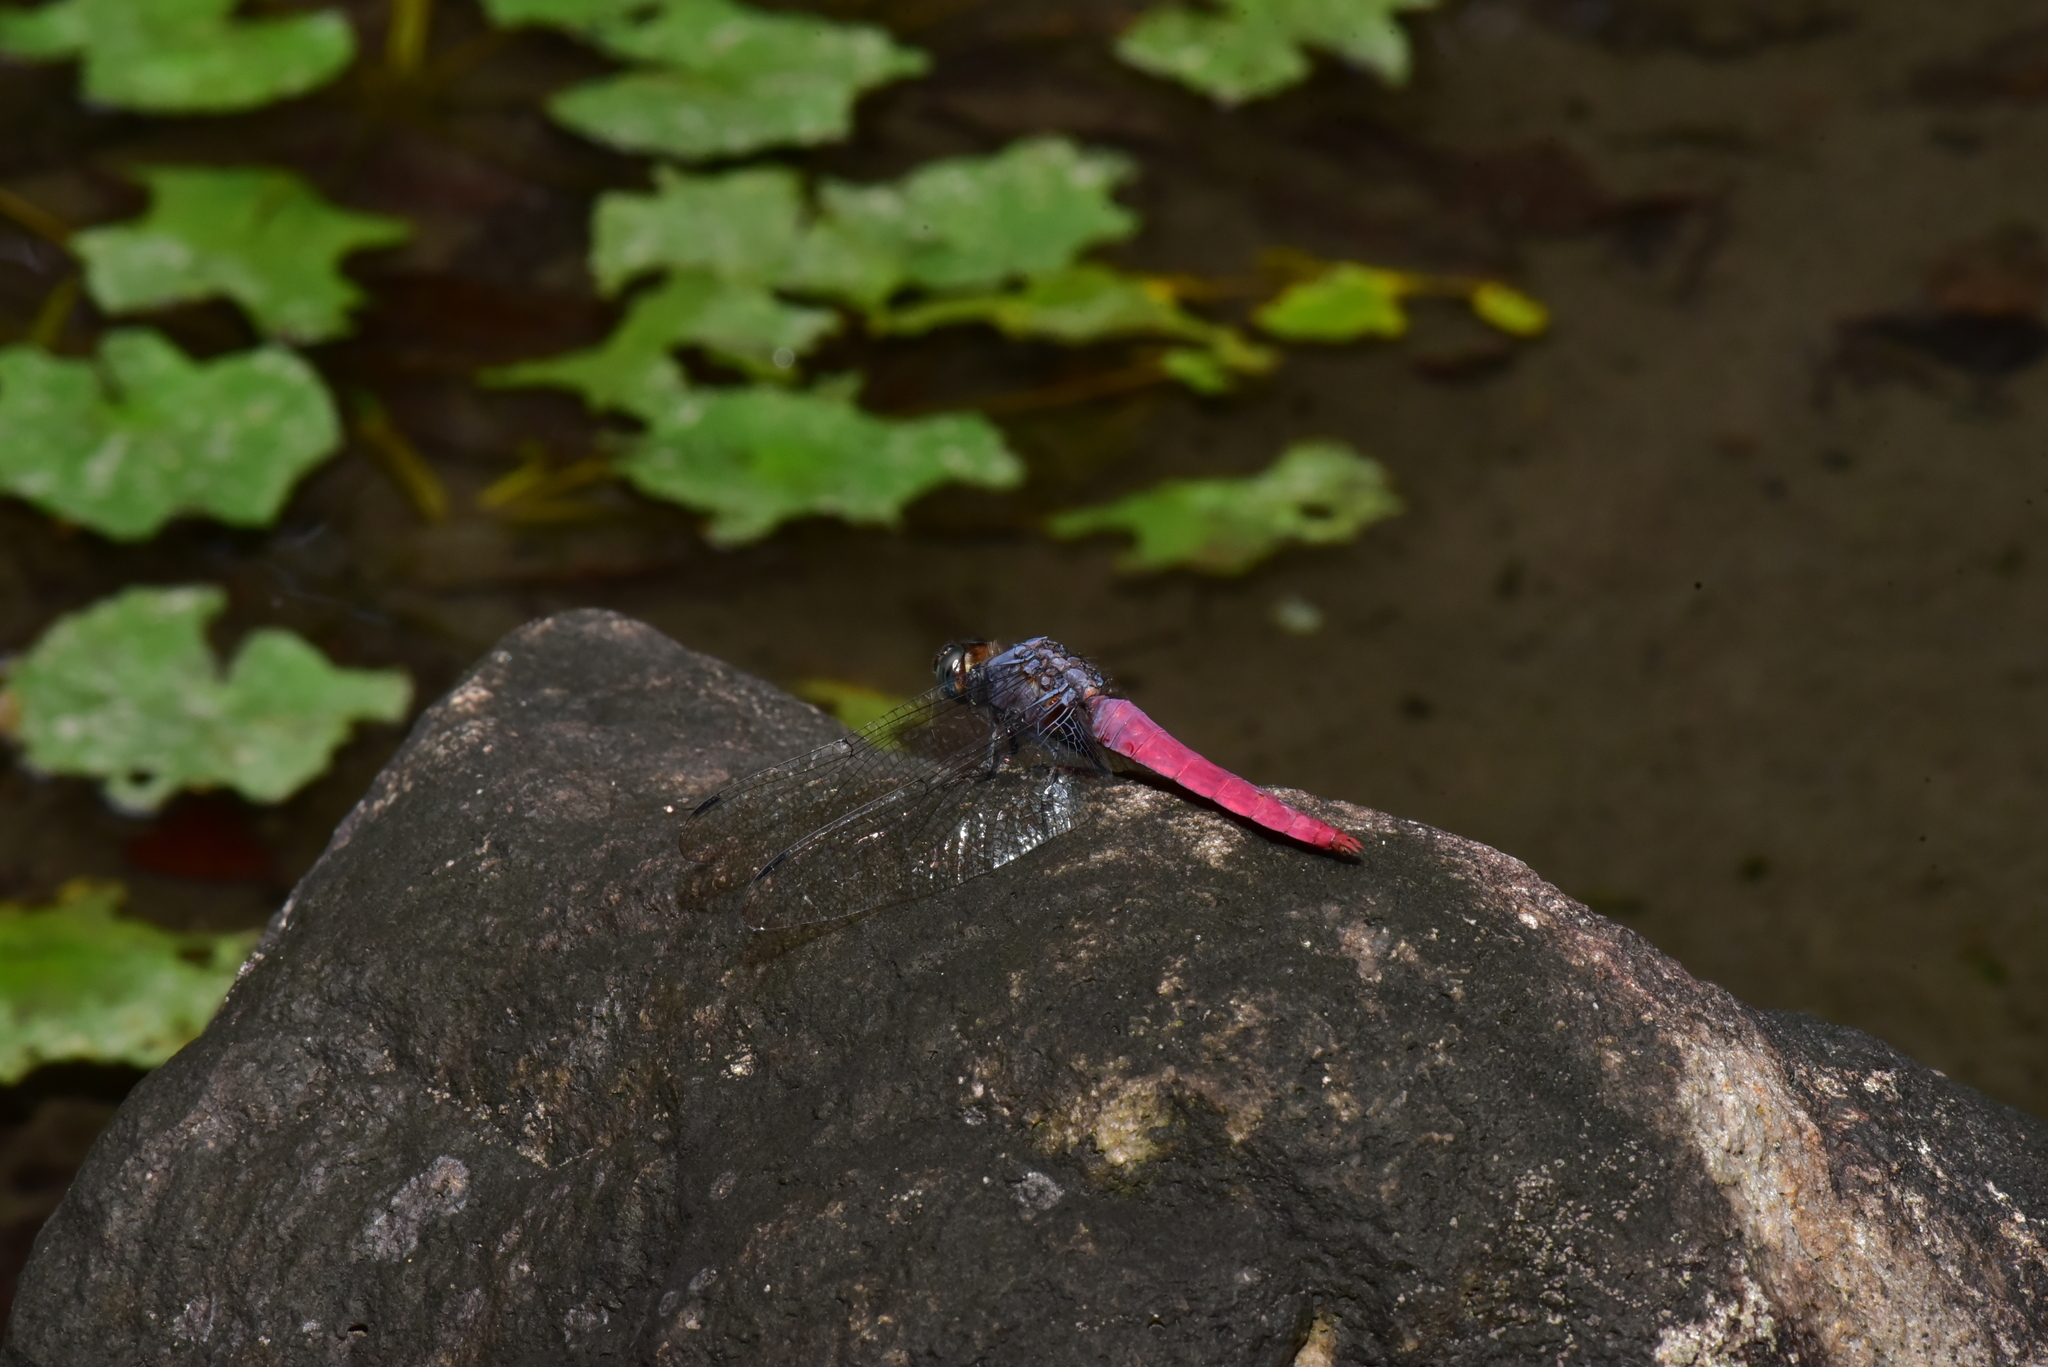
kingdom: Animalia
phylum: Arthropoda
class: Insecta
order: Odonata
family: Libellulidae
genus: Orthetrum
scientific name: Orthetrum pruinosum
